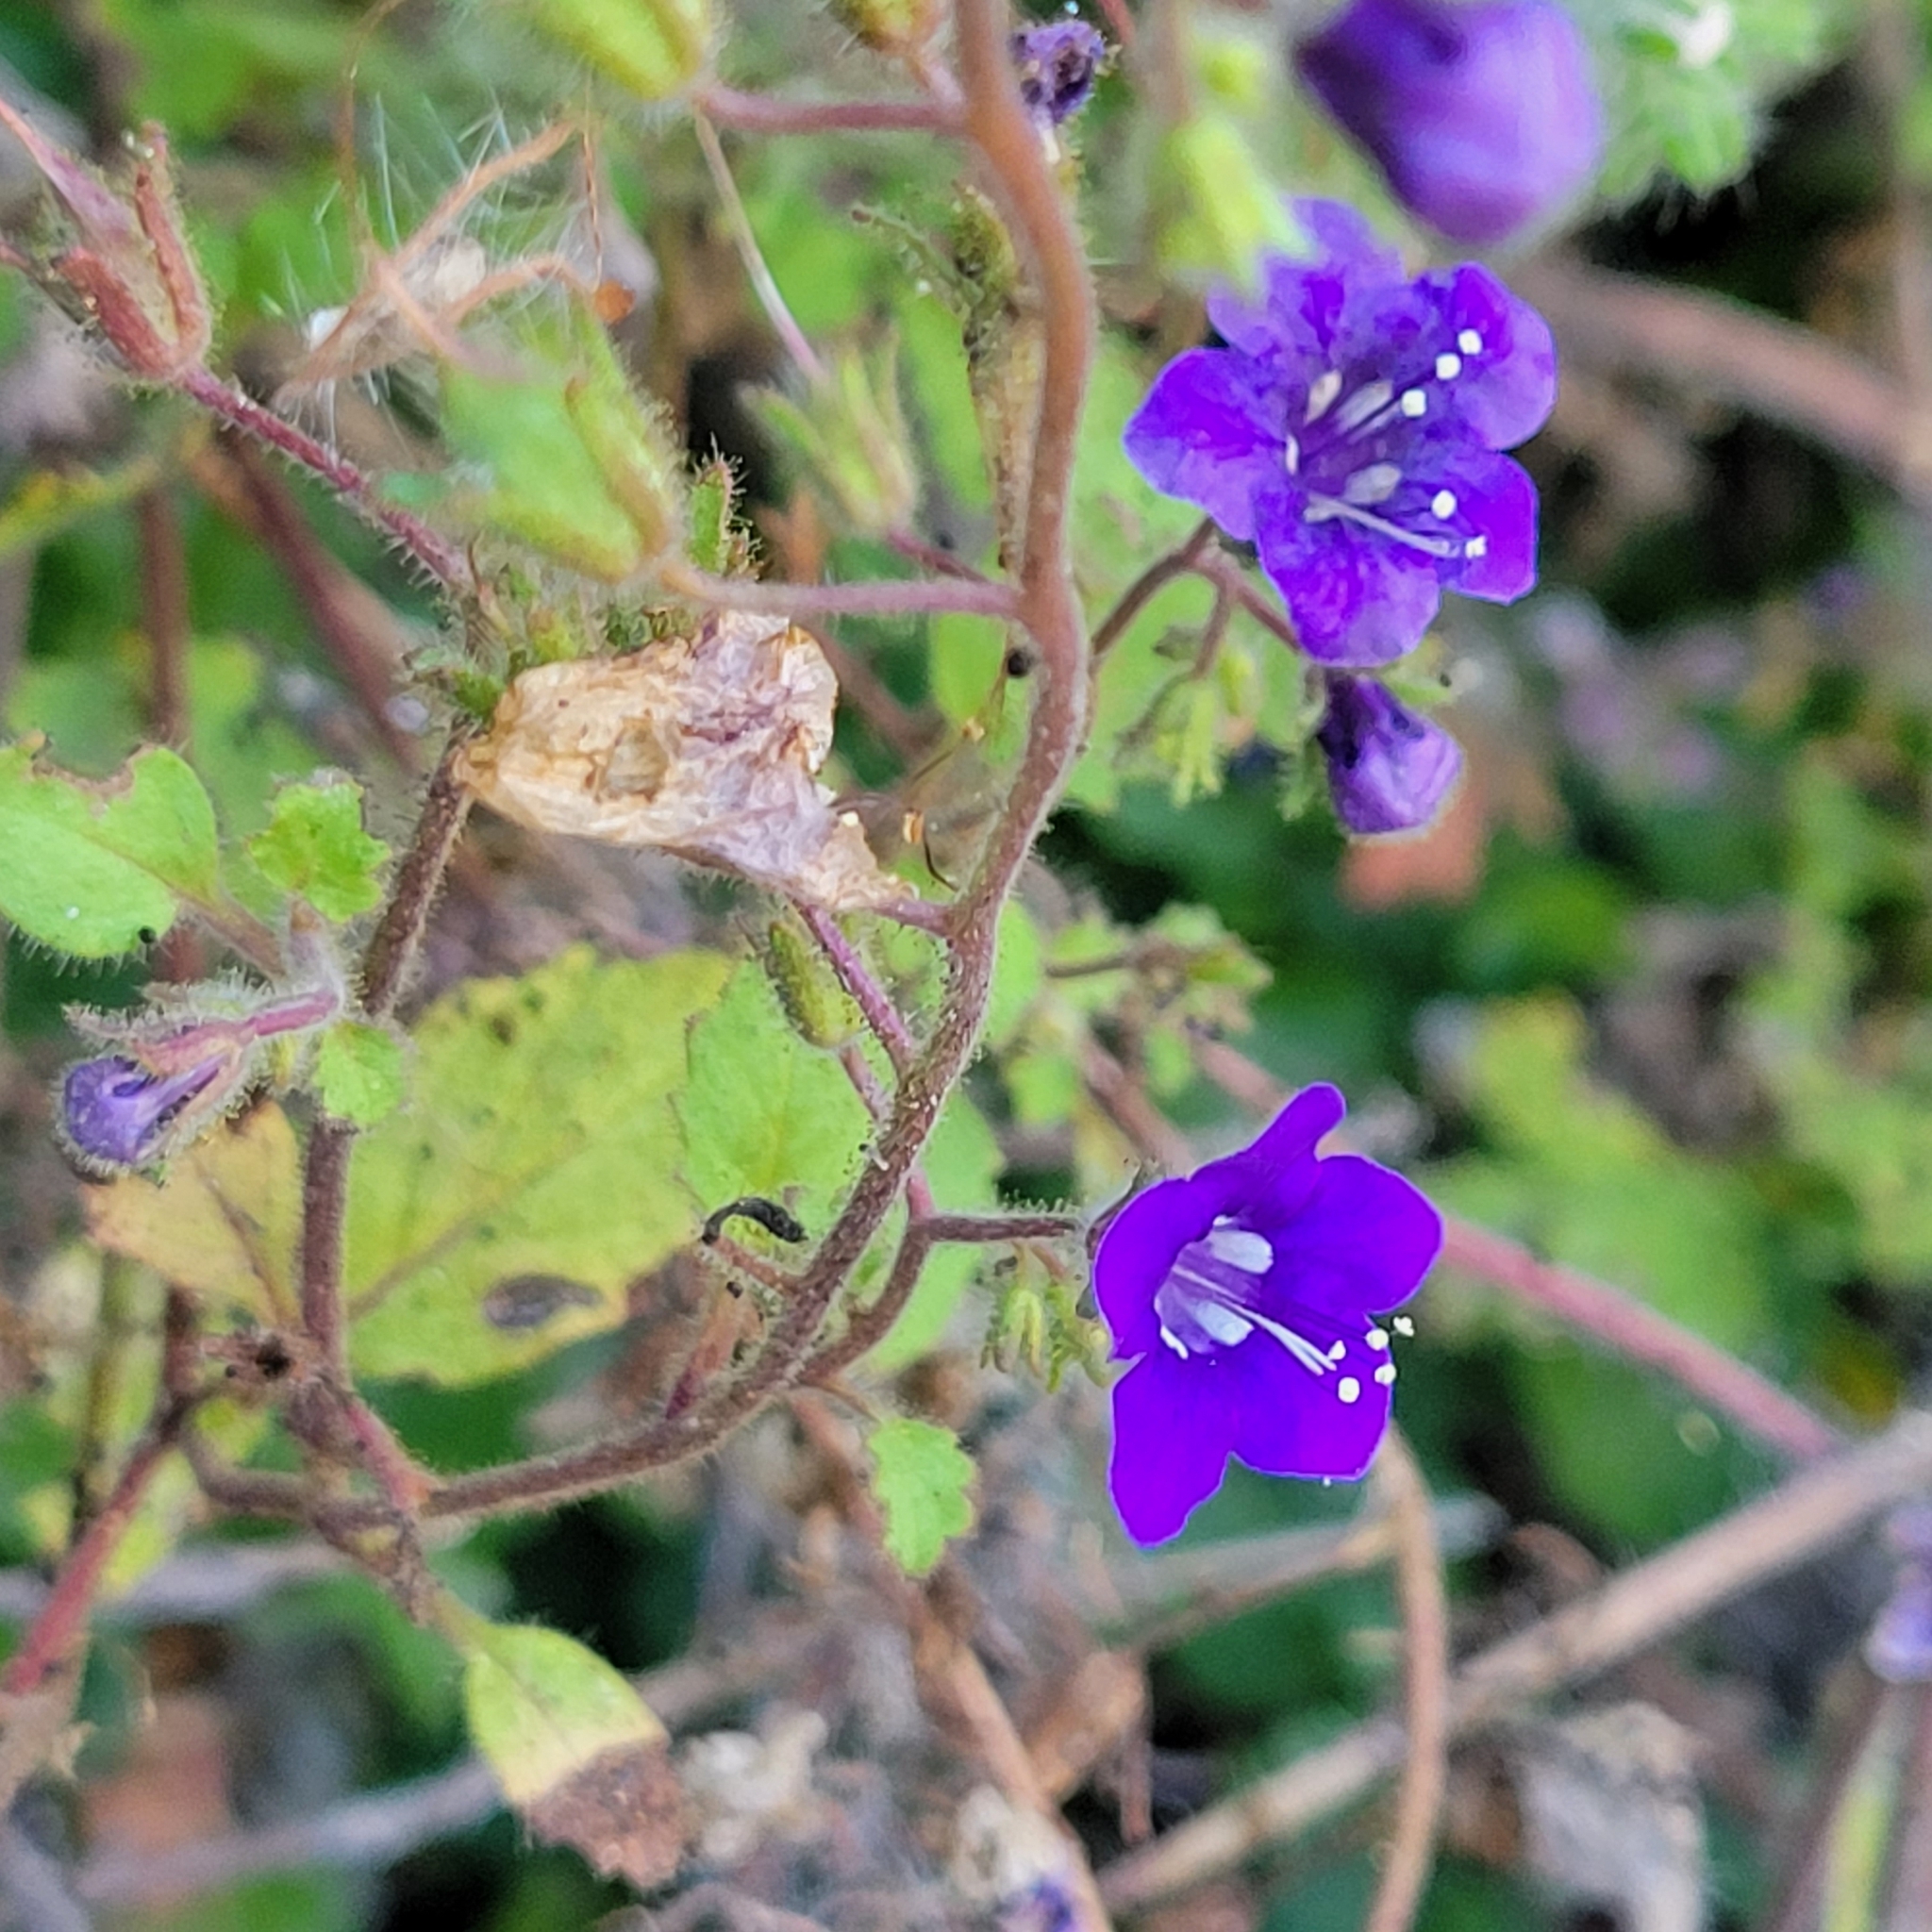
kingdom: Plantae
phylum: Tracheophyta
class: Magnoliopsida
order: Boraginales
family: Hydrophyllaceae
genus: Phacelia
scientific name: Phacelia parryi
